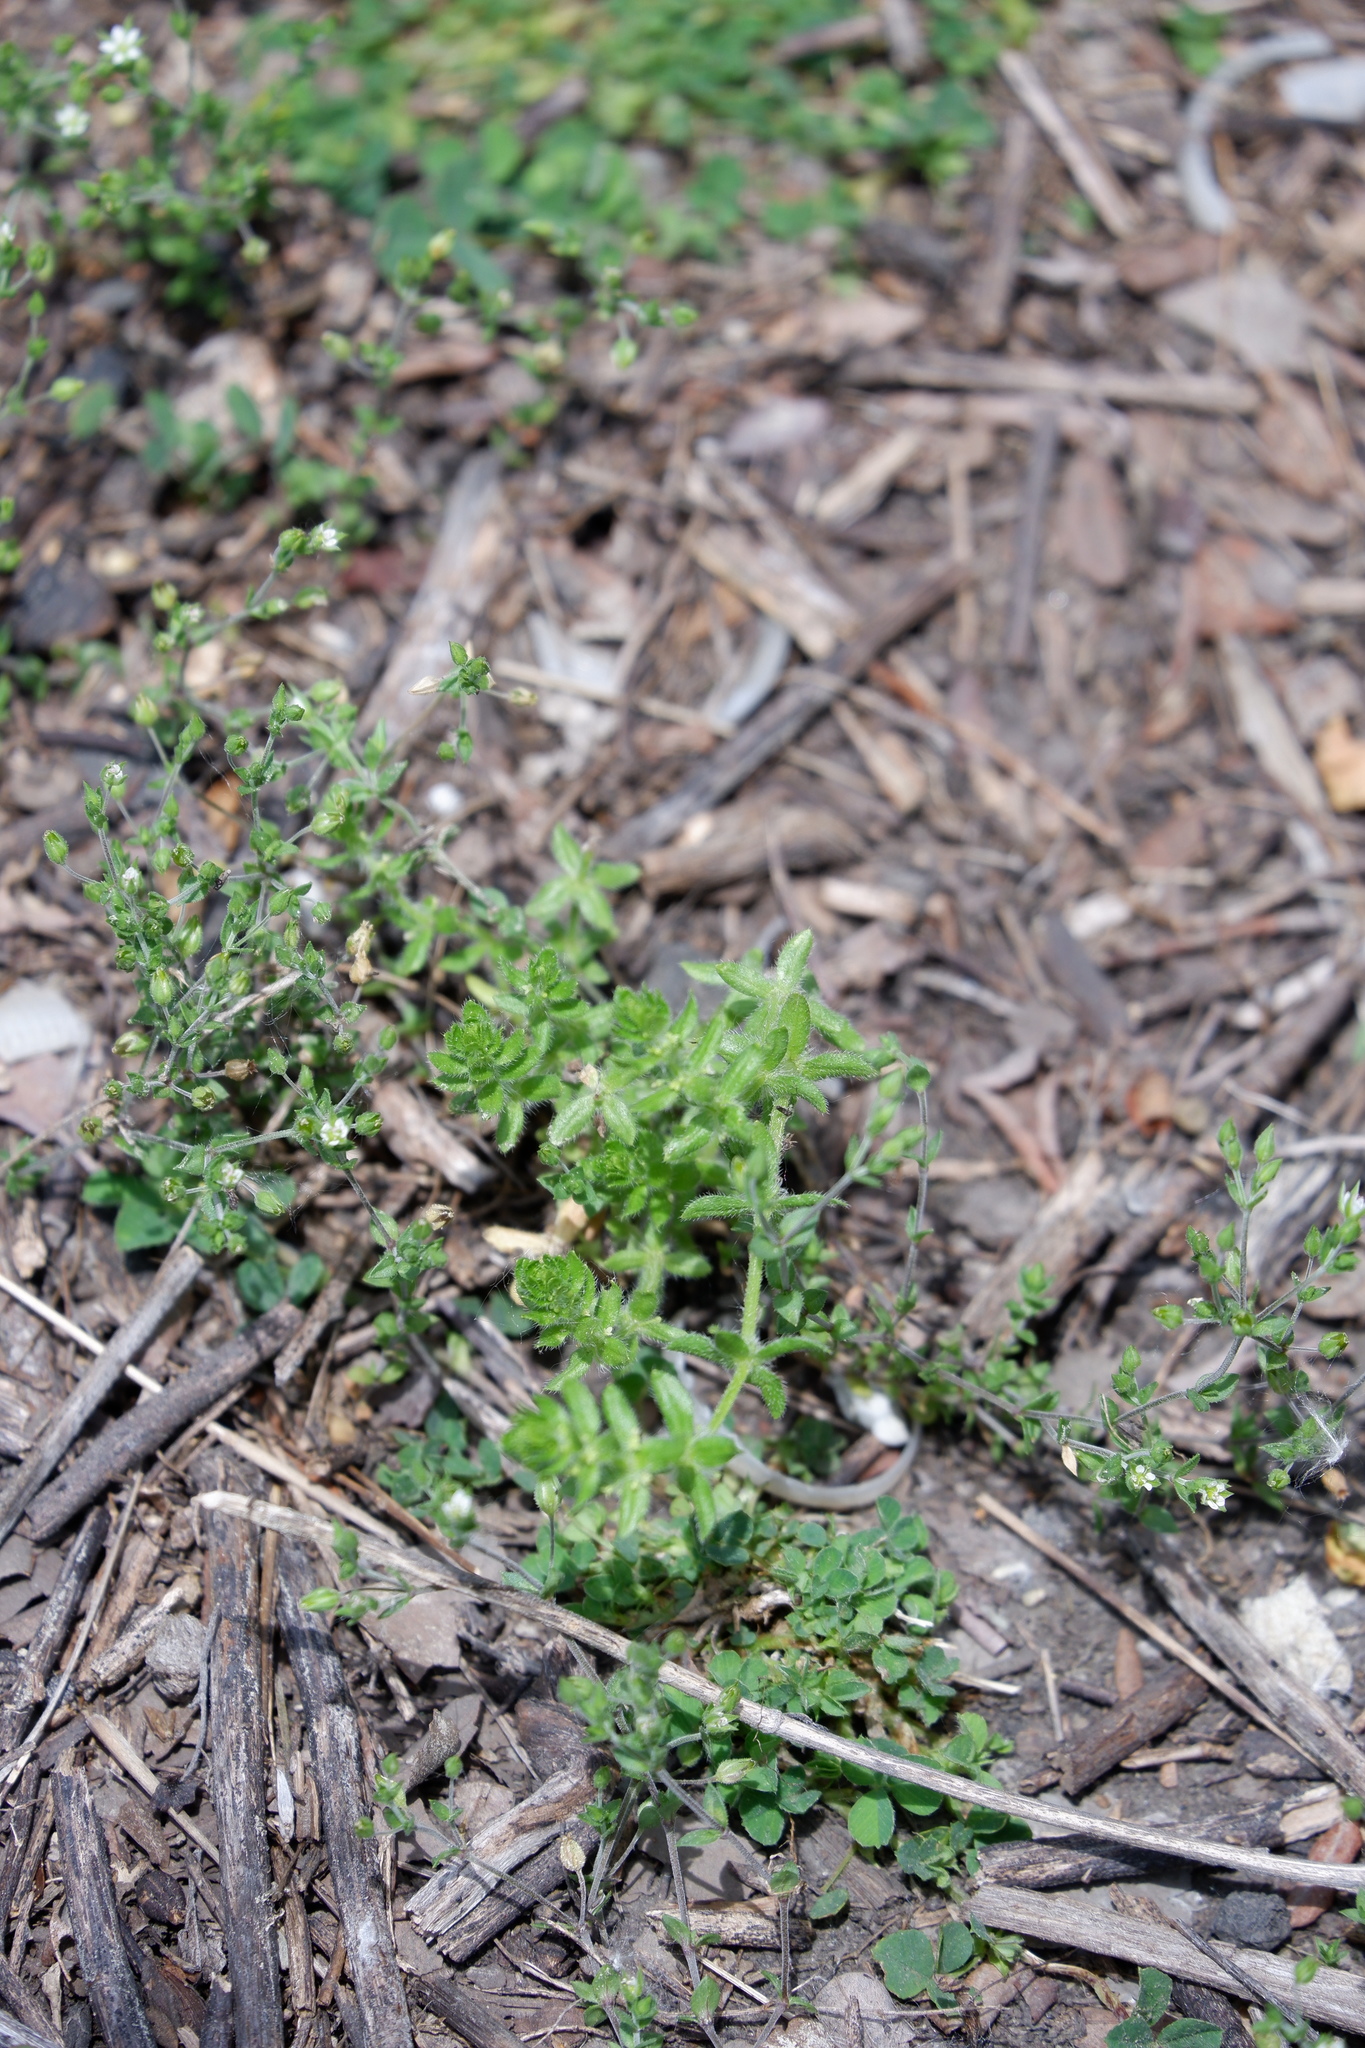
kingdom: Plantae
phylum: Tracheophyta
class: Magnoliopsida
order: Gentianales
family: Rubiaceae
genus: Cruciata
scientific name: Cruciata pedemontana
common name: Piedmont bedstraw
